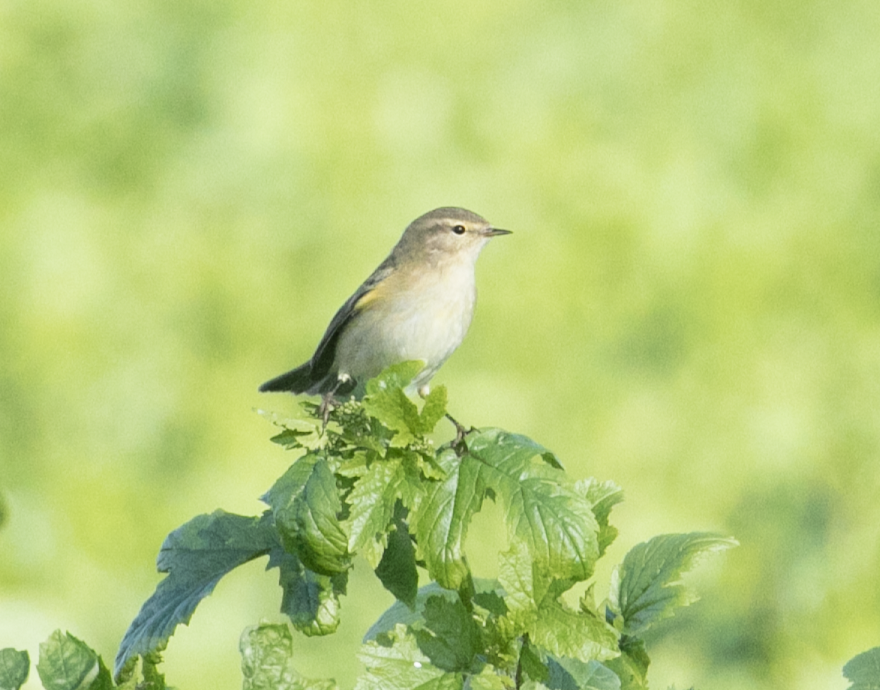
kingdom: Animalia
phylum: Chordata
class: Aves
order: Passeriformes
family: Phylloscopidae
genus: Phylloscopus
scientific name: Phylloscopus collybita
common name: Common chiffchaff
